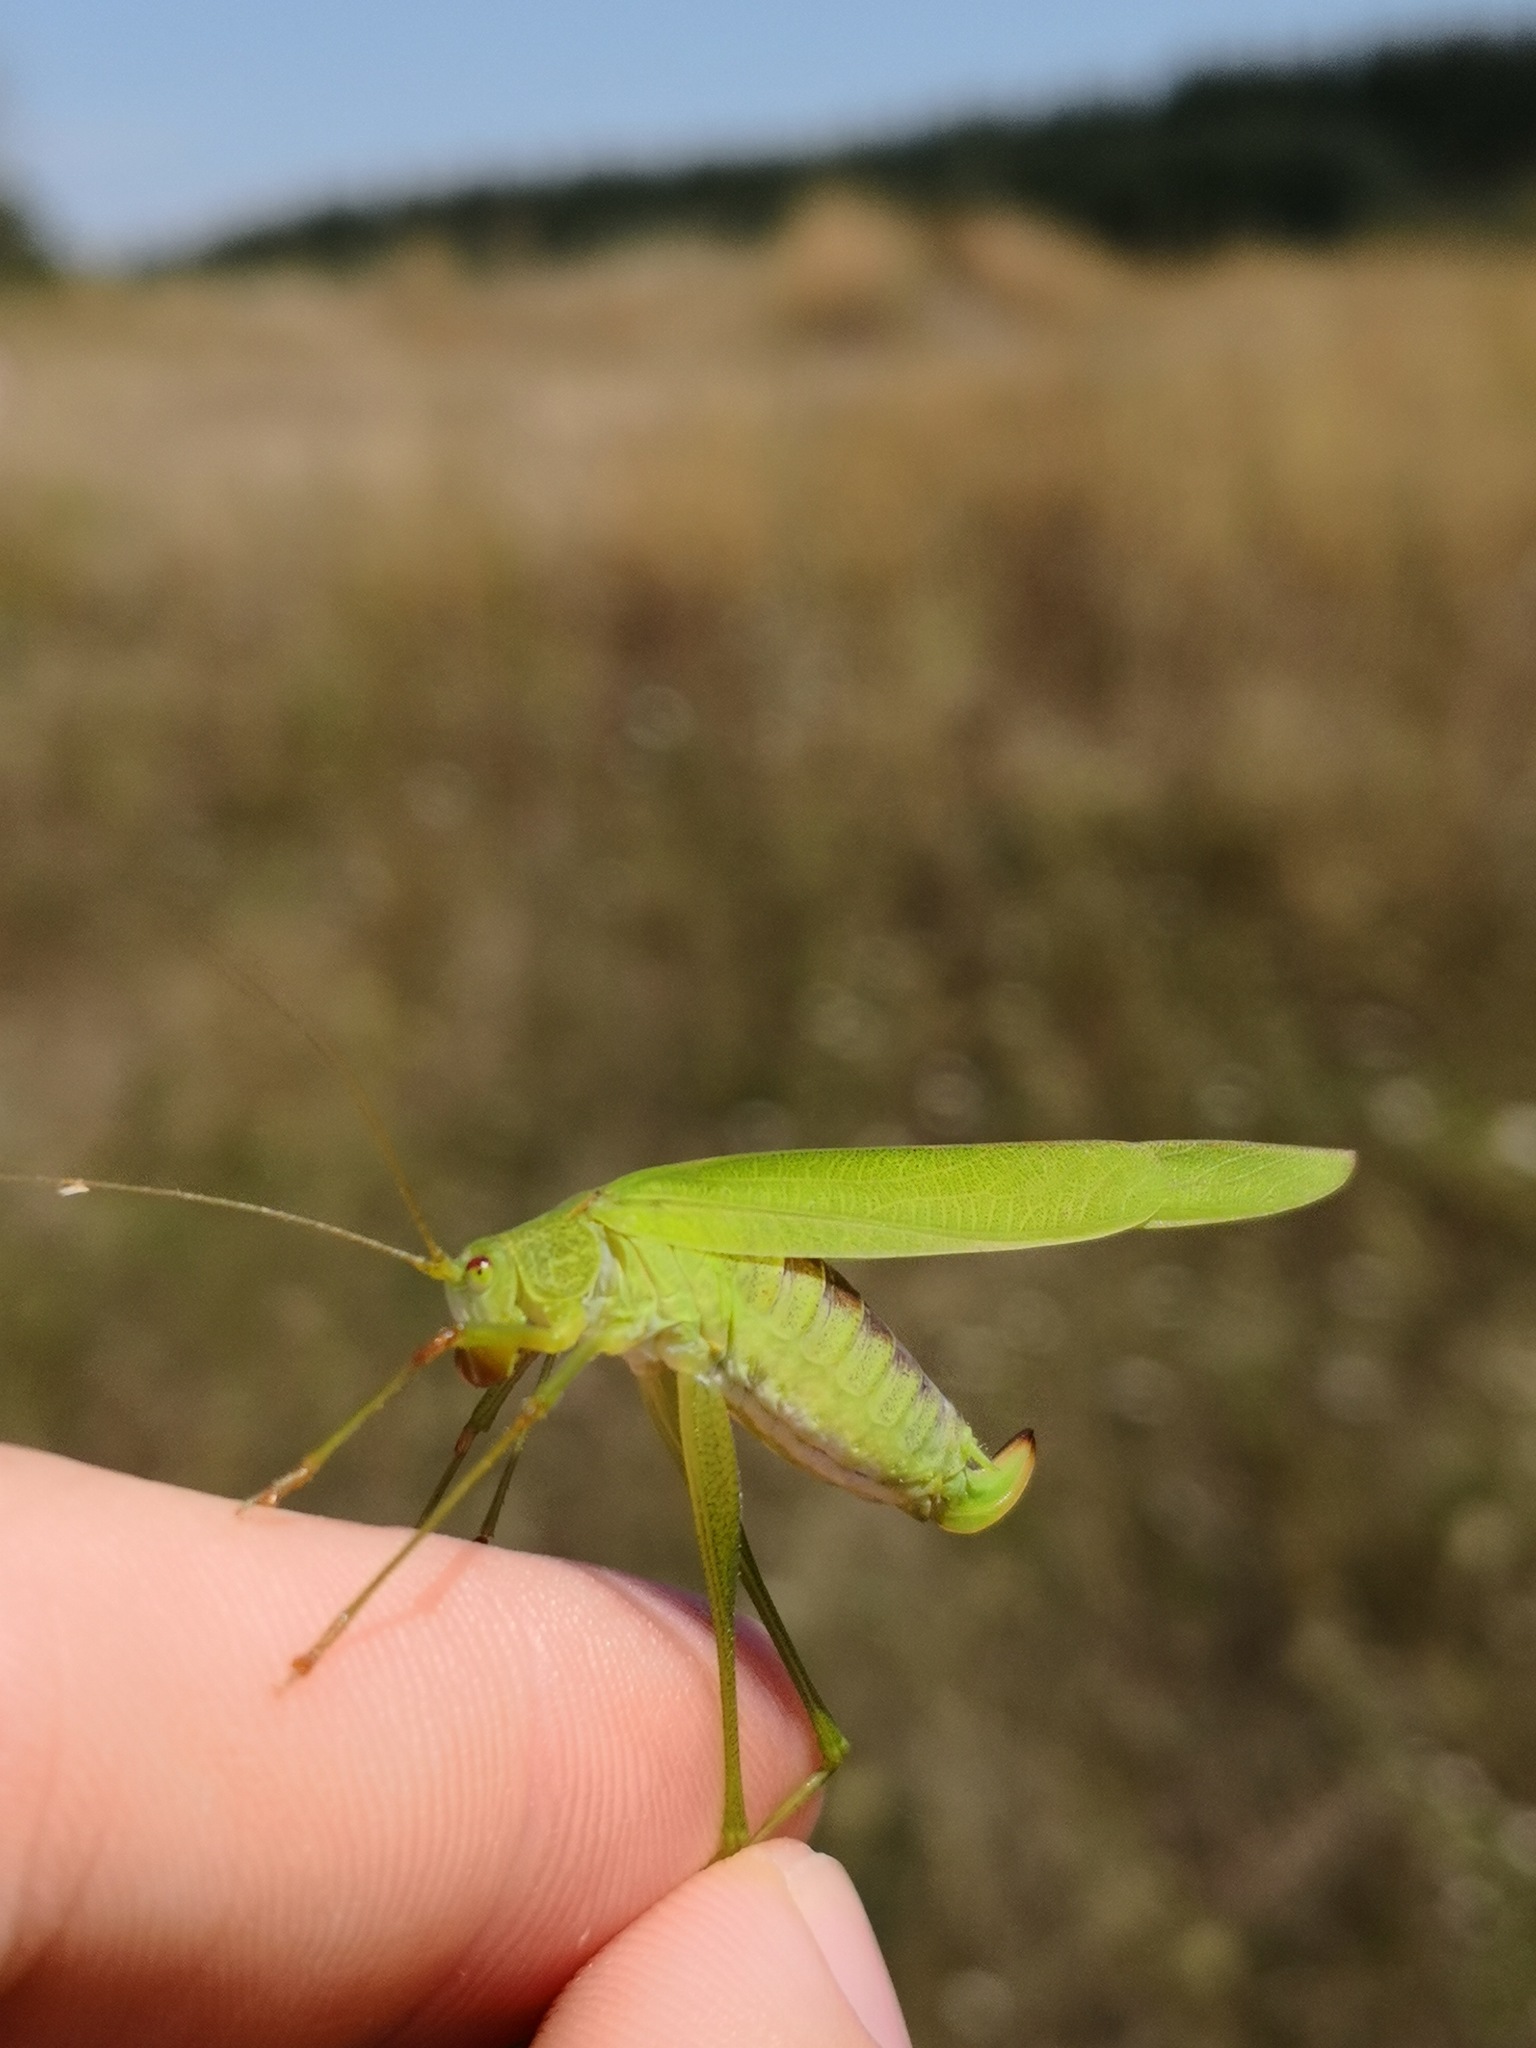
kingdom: Animalia
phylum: Arthropoda
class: Insecta
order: Orthoptera
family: Tettigoniidae
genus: Phaneroptera
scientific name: Phaneroptera falcata
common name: Sickle-bearing bush-cricket
